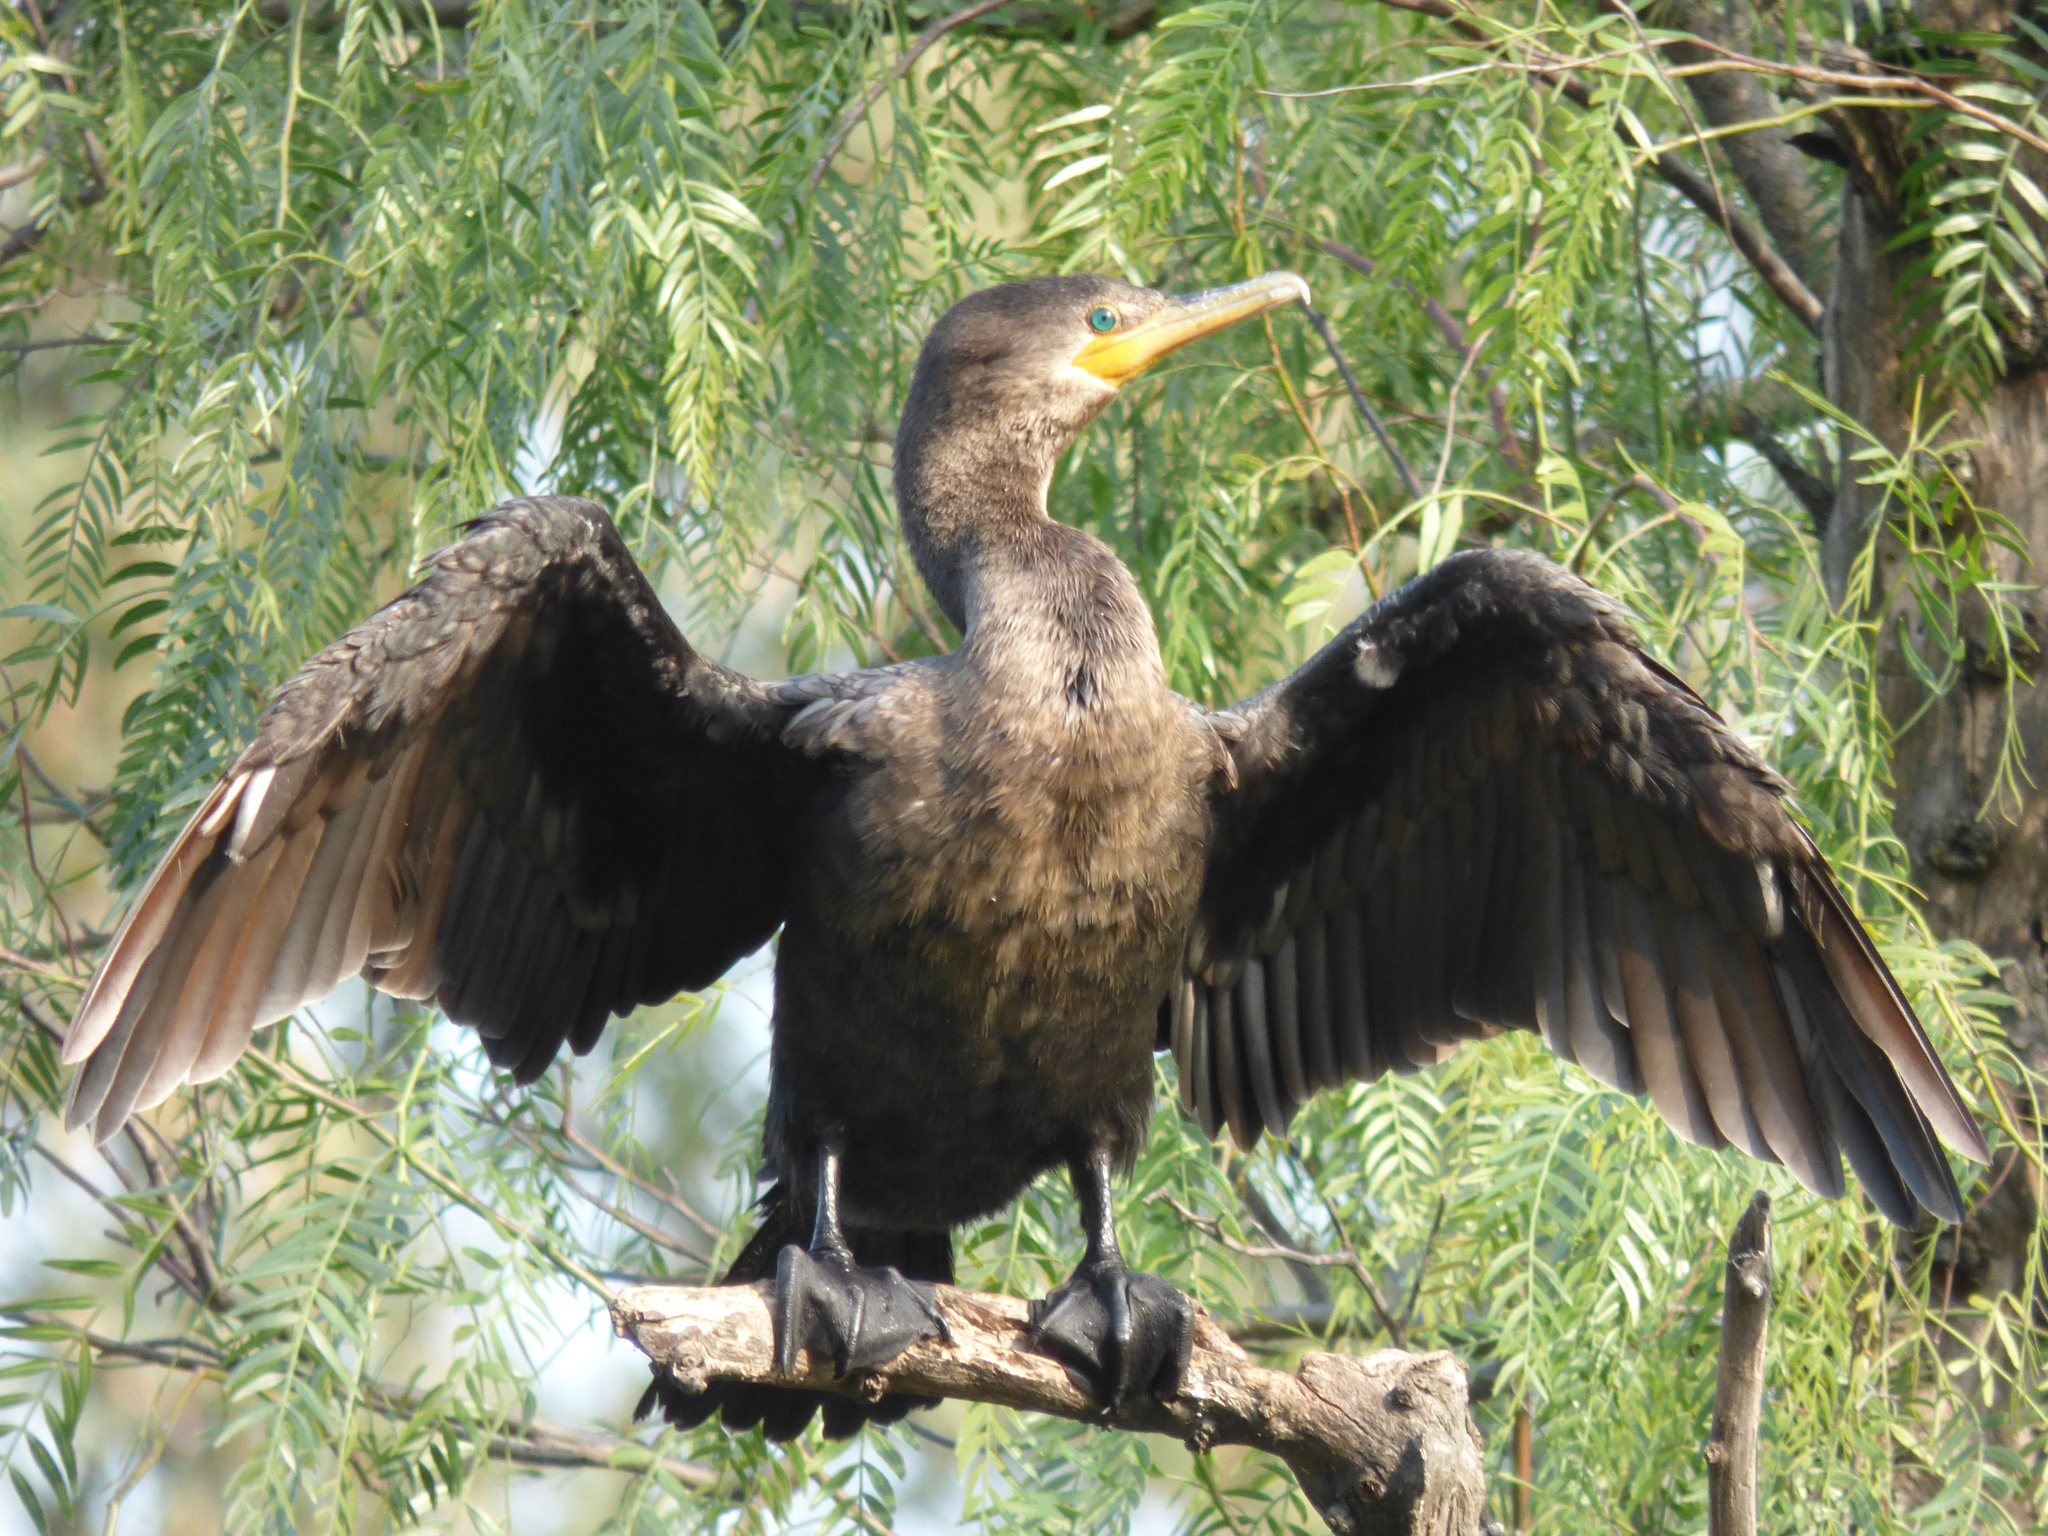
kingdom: Animalia
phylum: Chordata
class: Aves
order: Suliformes
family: Phalacrocoracidae
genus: Phalacrocorax
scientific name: Phalacrocorax brasilianus
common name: Neotropic cormorant
